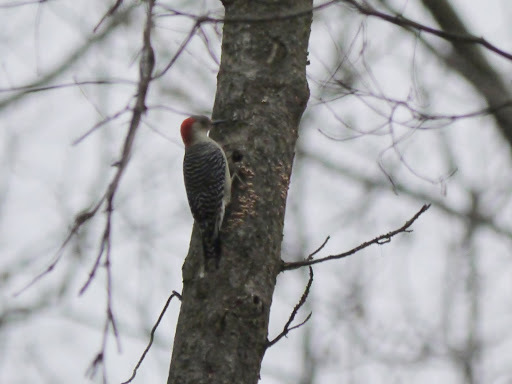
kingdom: Animalia
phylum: Chordata
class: Aves
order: Piciformes
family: Picidae
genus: Melanerpes
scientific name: Melanerpes carolinus
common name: Red-bellied woodpecker
